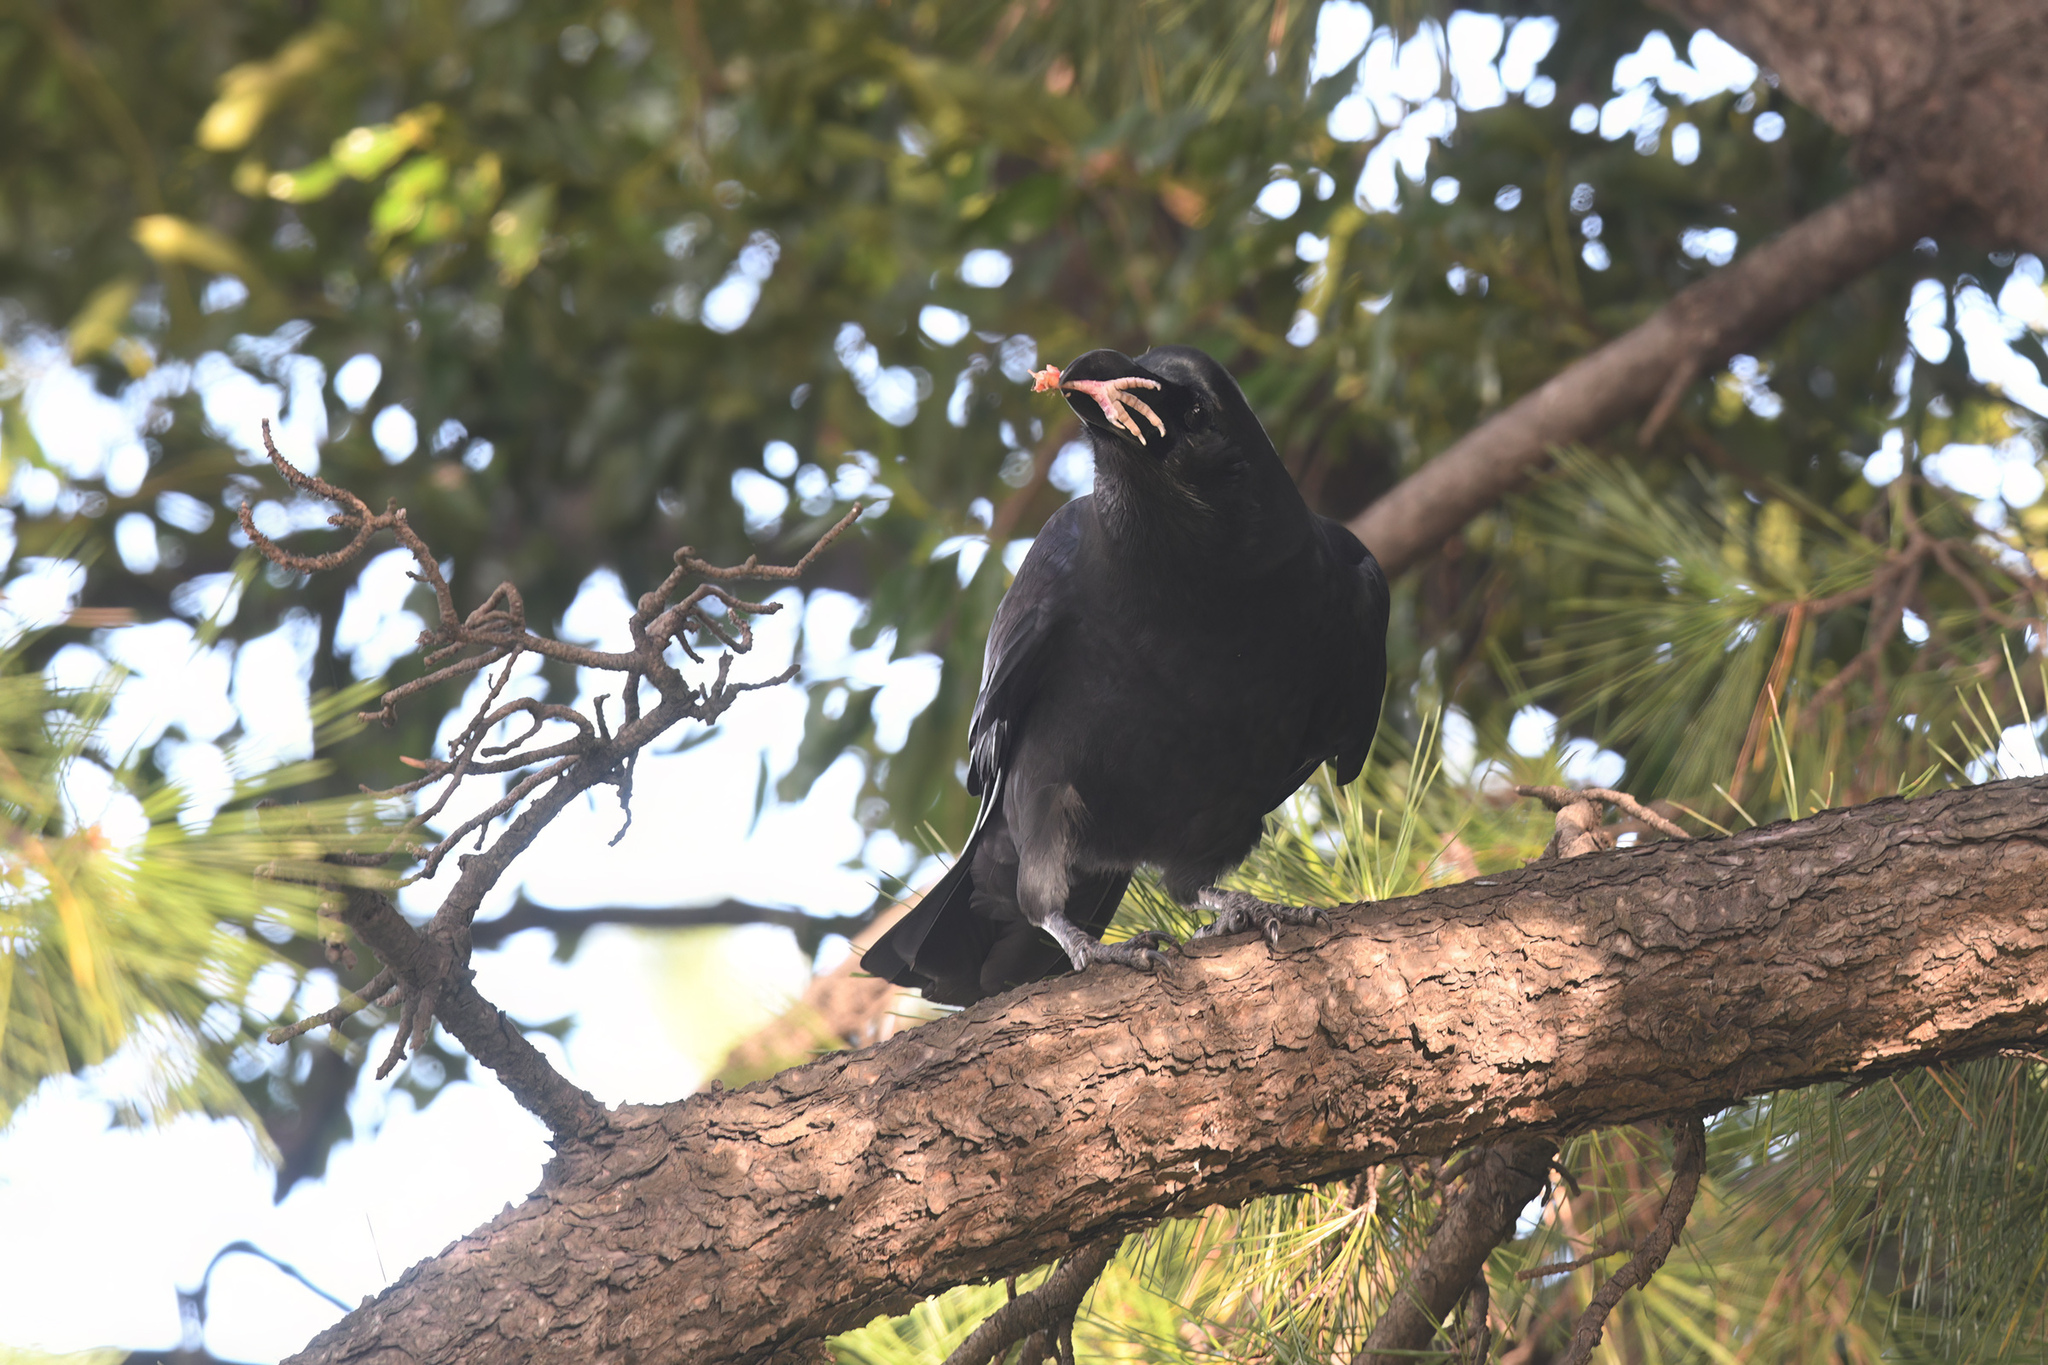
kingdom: Animalia
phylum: Chordata
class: Aves
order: Passeriformes
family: Corvidae
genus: Corvus
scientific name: Corvus macrorhynchos
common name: Large-billed crow
